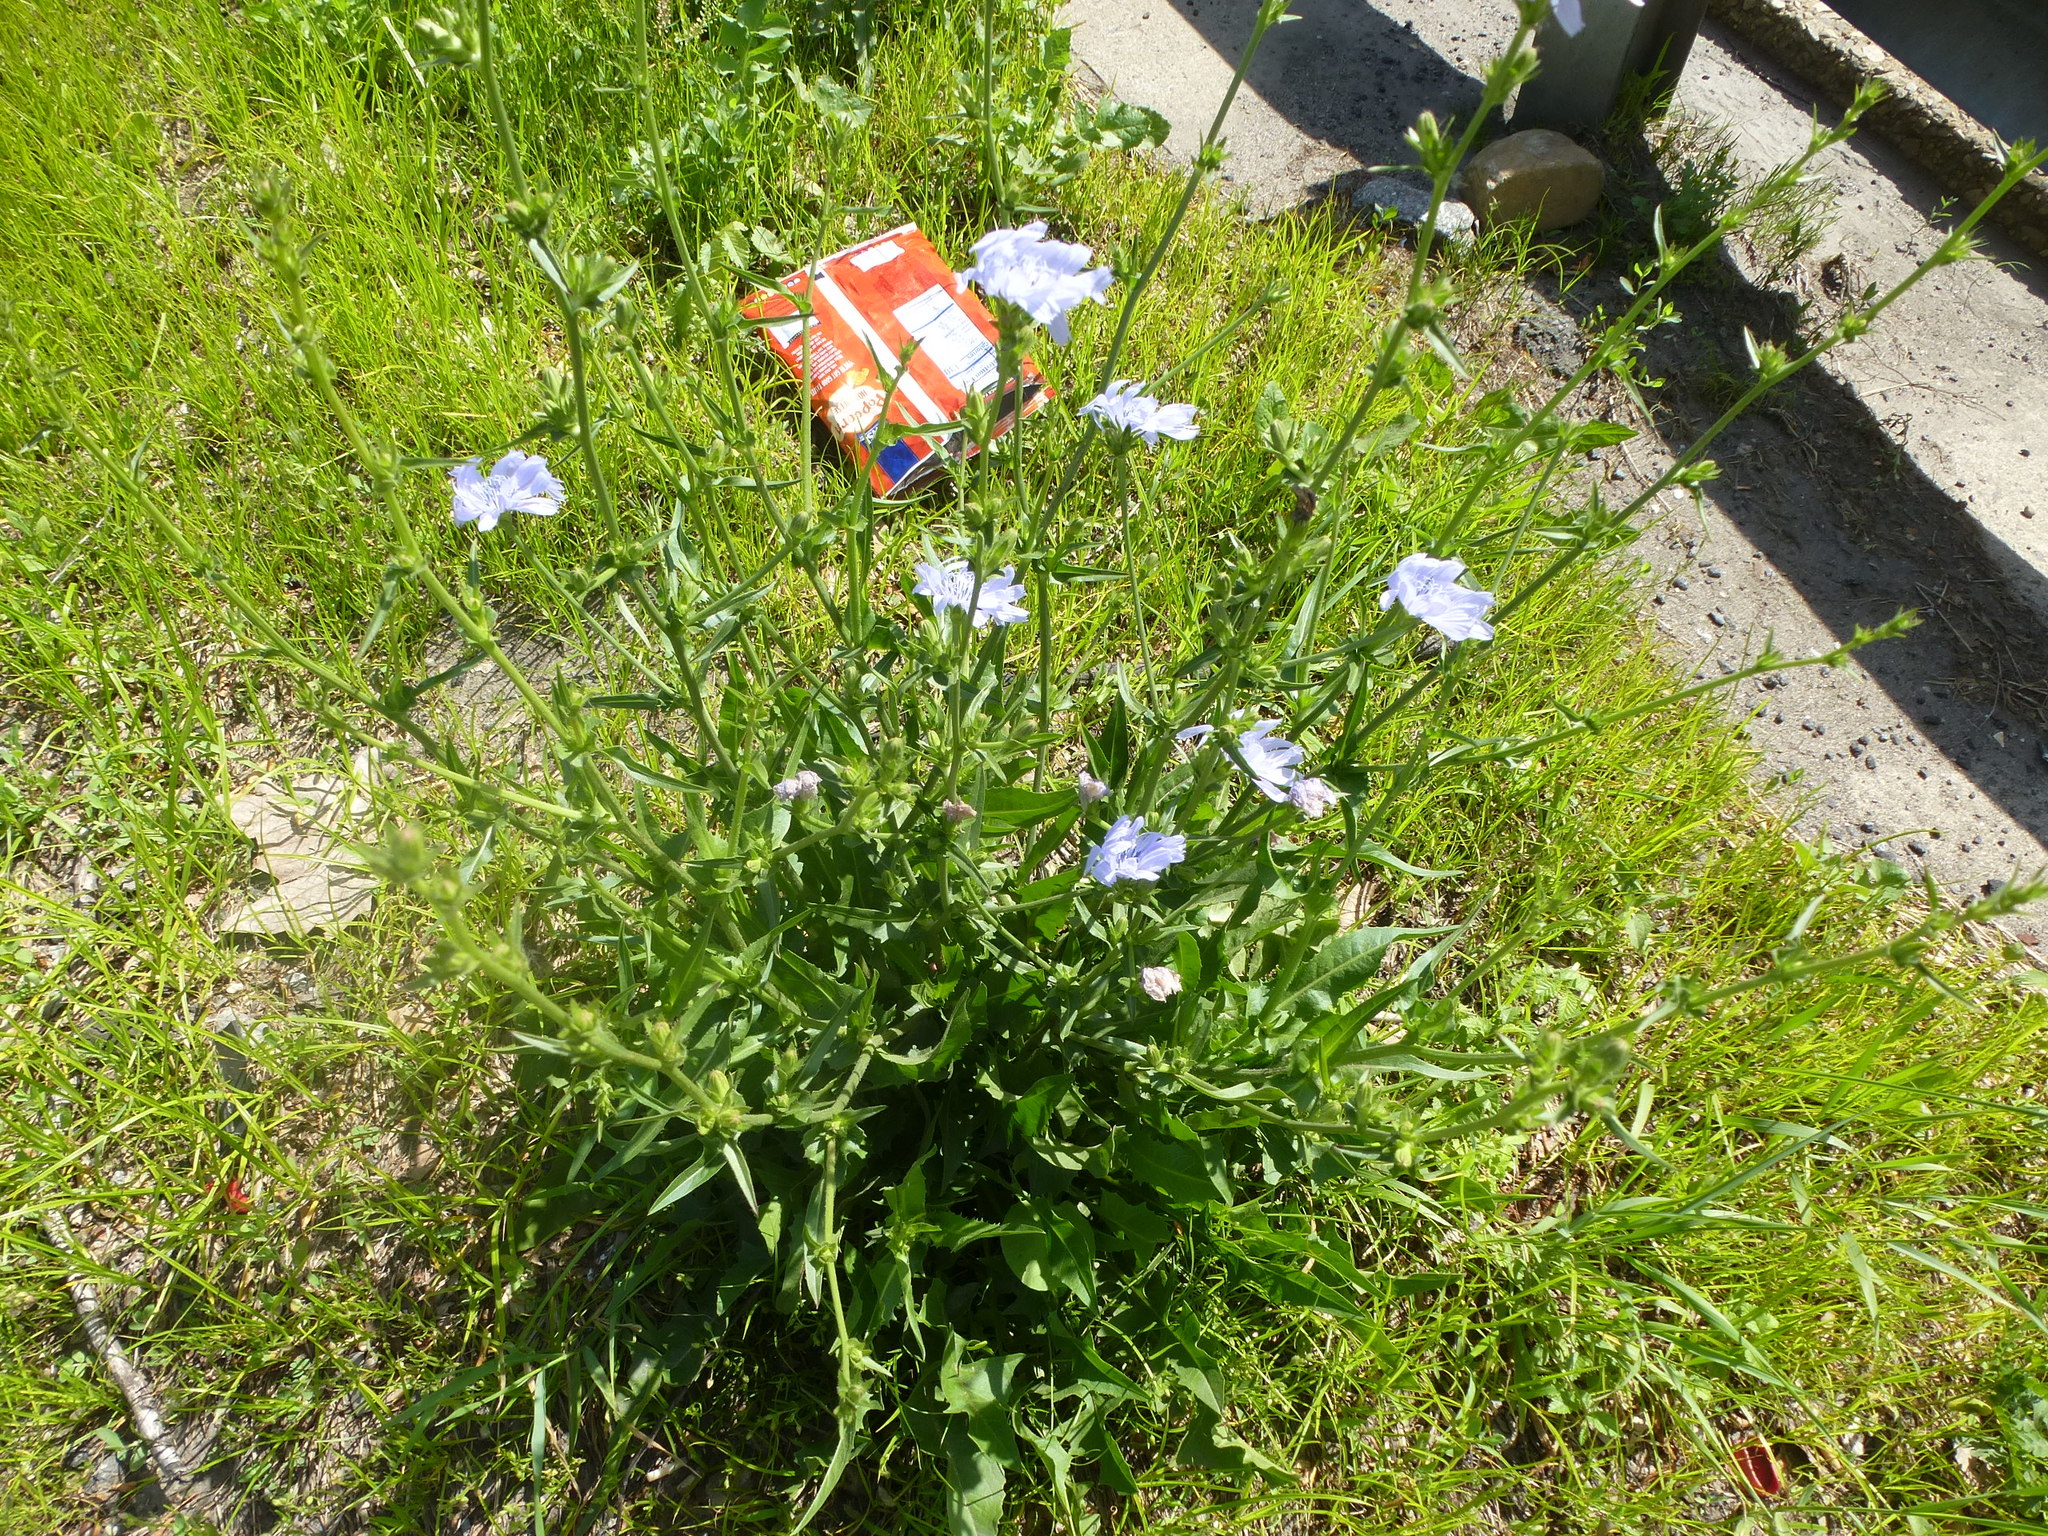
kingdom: Plantae
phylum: Tracheophyta
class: Magnoliopsida
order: Asterales
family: Asteraceae
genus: Cichorium
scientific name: Cichorium intybus
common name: Chicory
